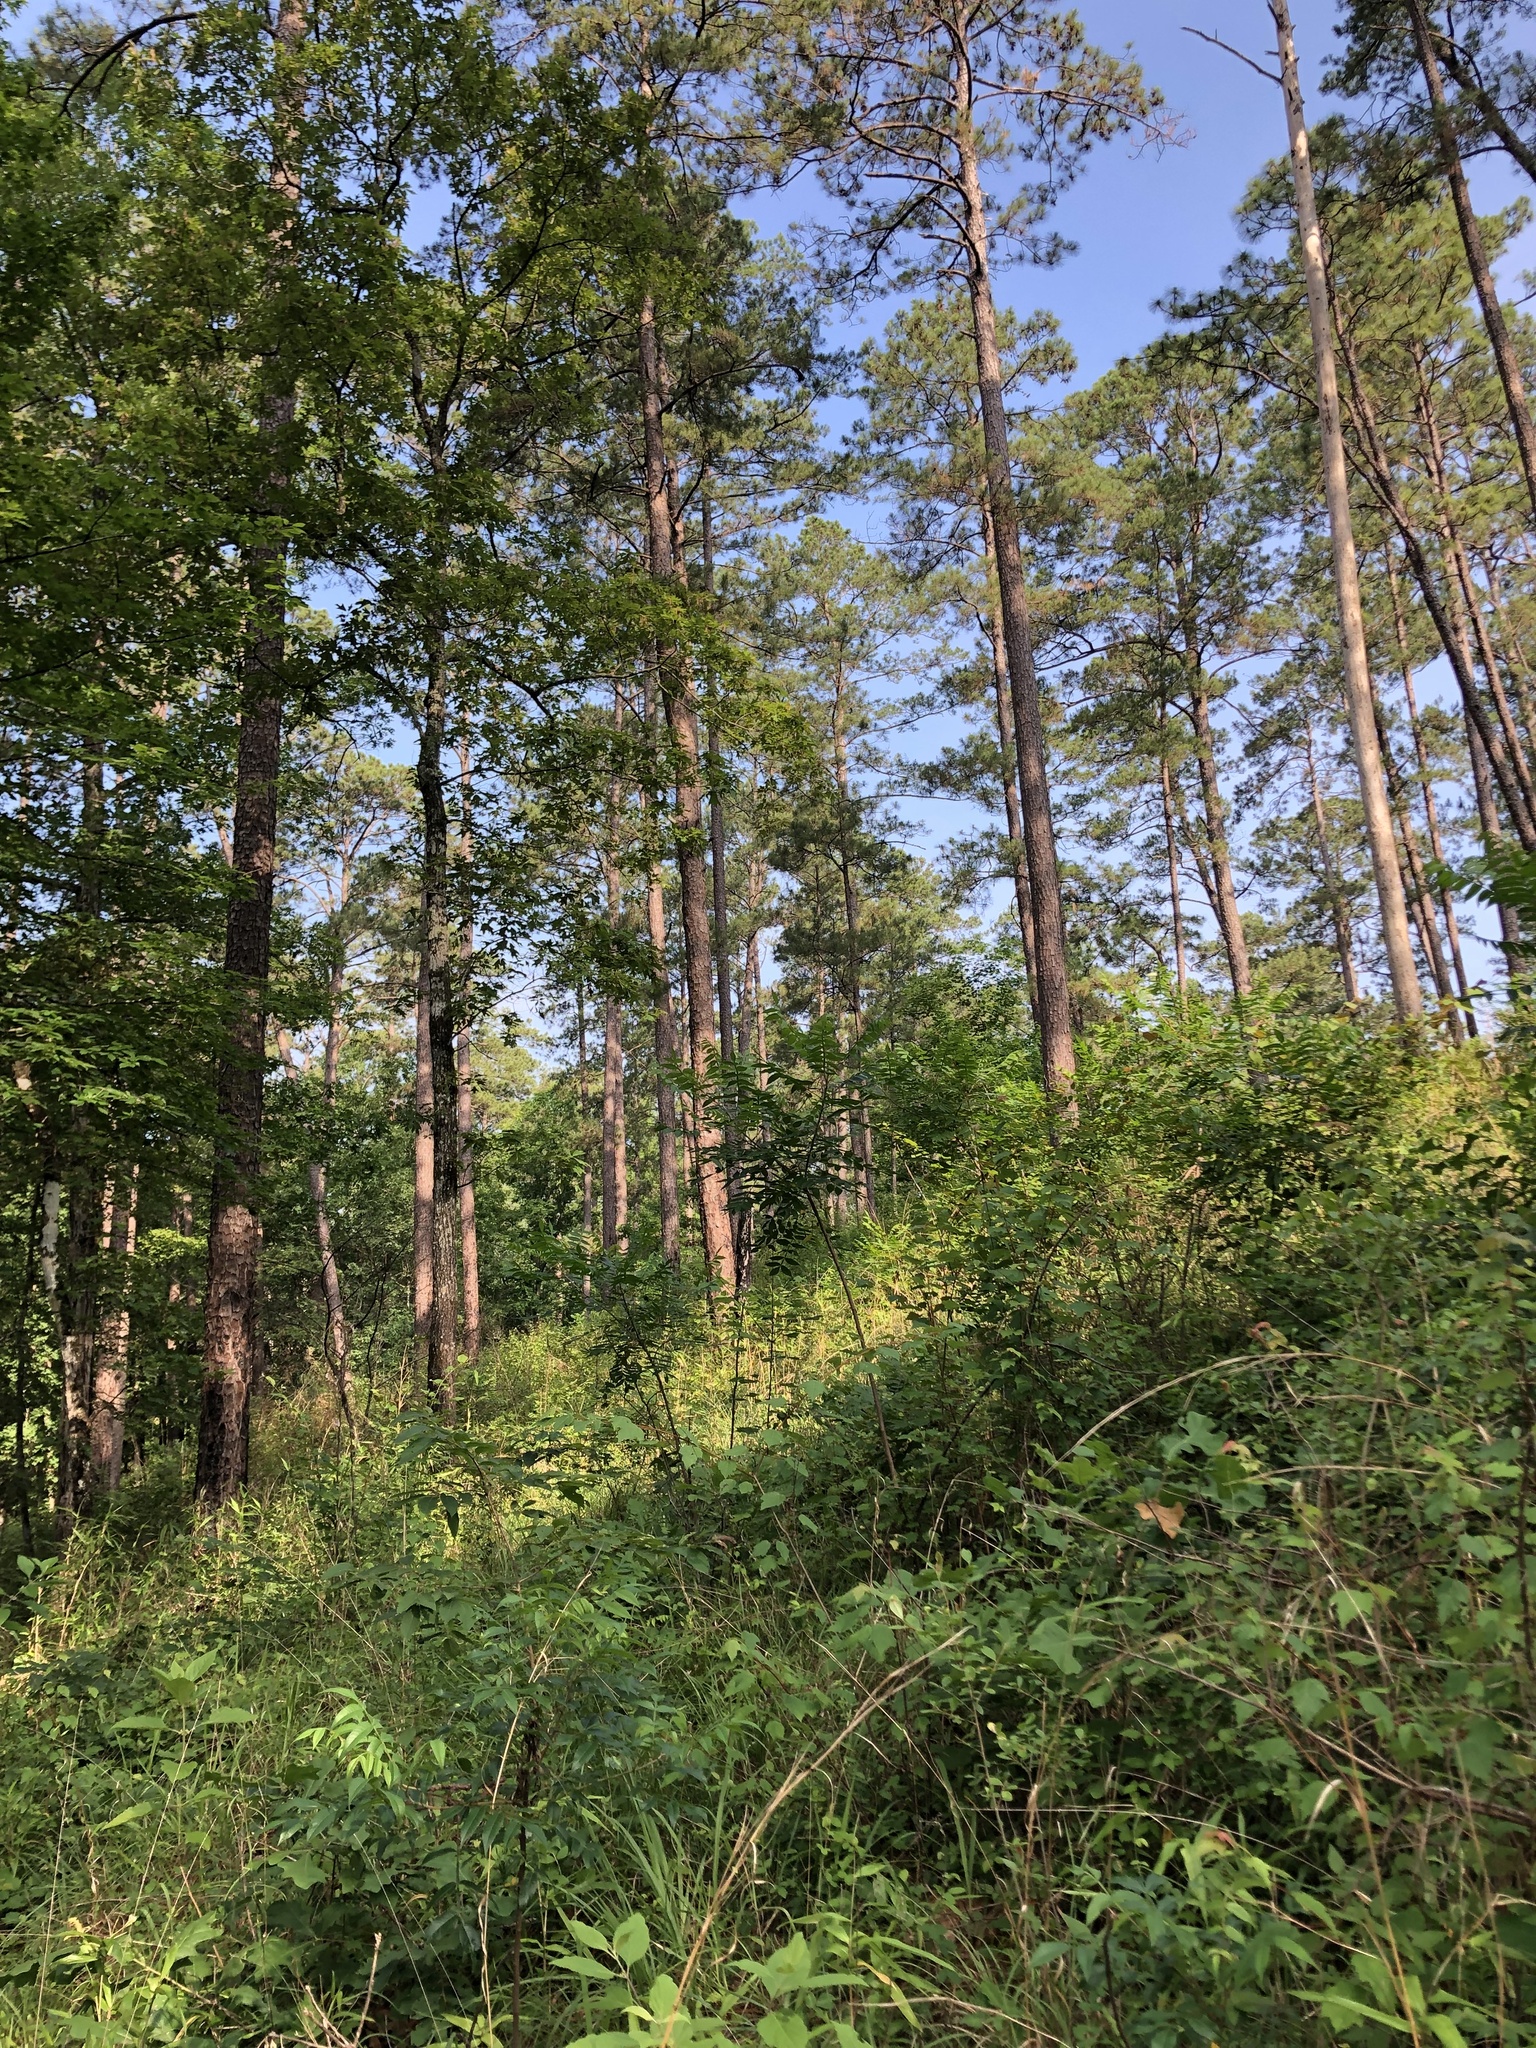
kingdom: Plantae
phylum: Tracheophyta
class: Magnoliopsida
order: Ericales
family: Polemoniaceae
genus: Phlox
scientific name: Phlox pilosa
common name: Prairie phlox
